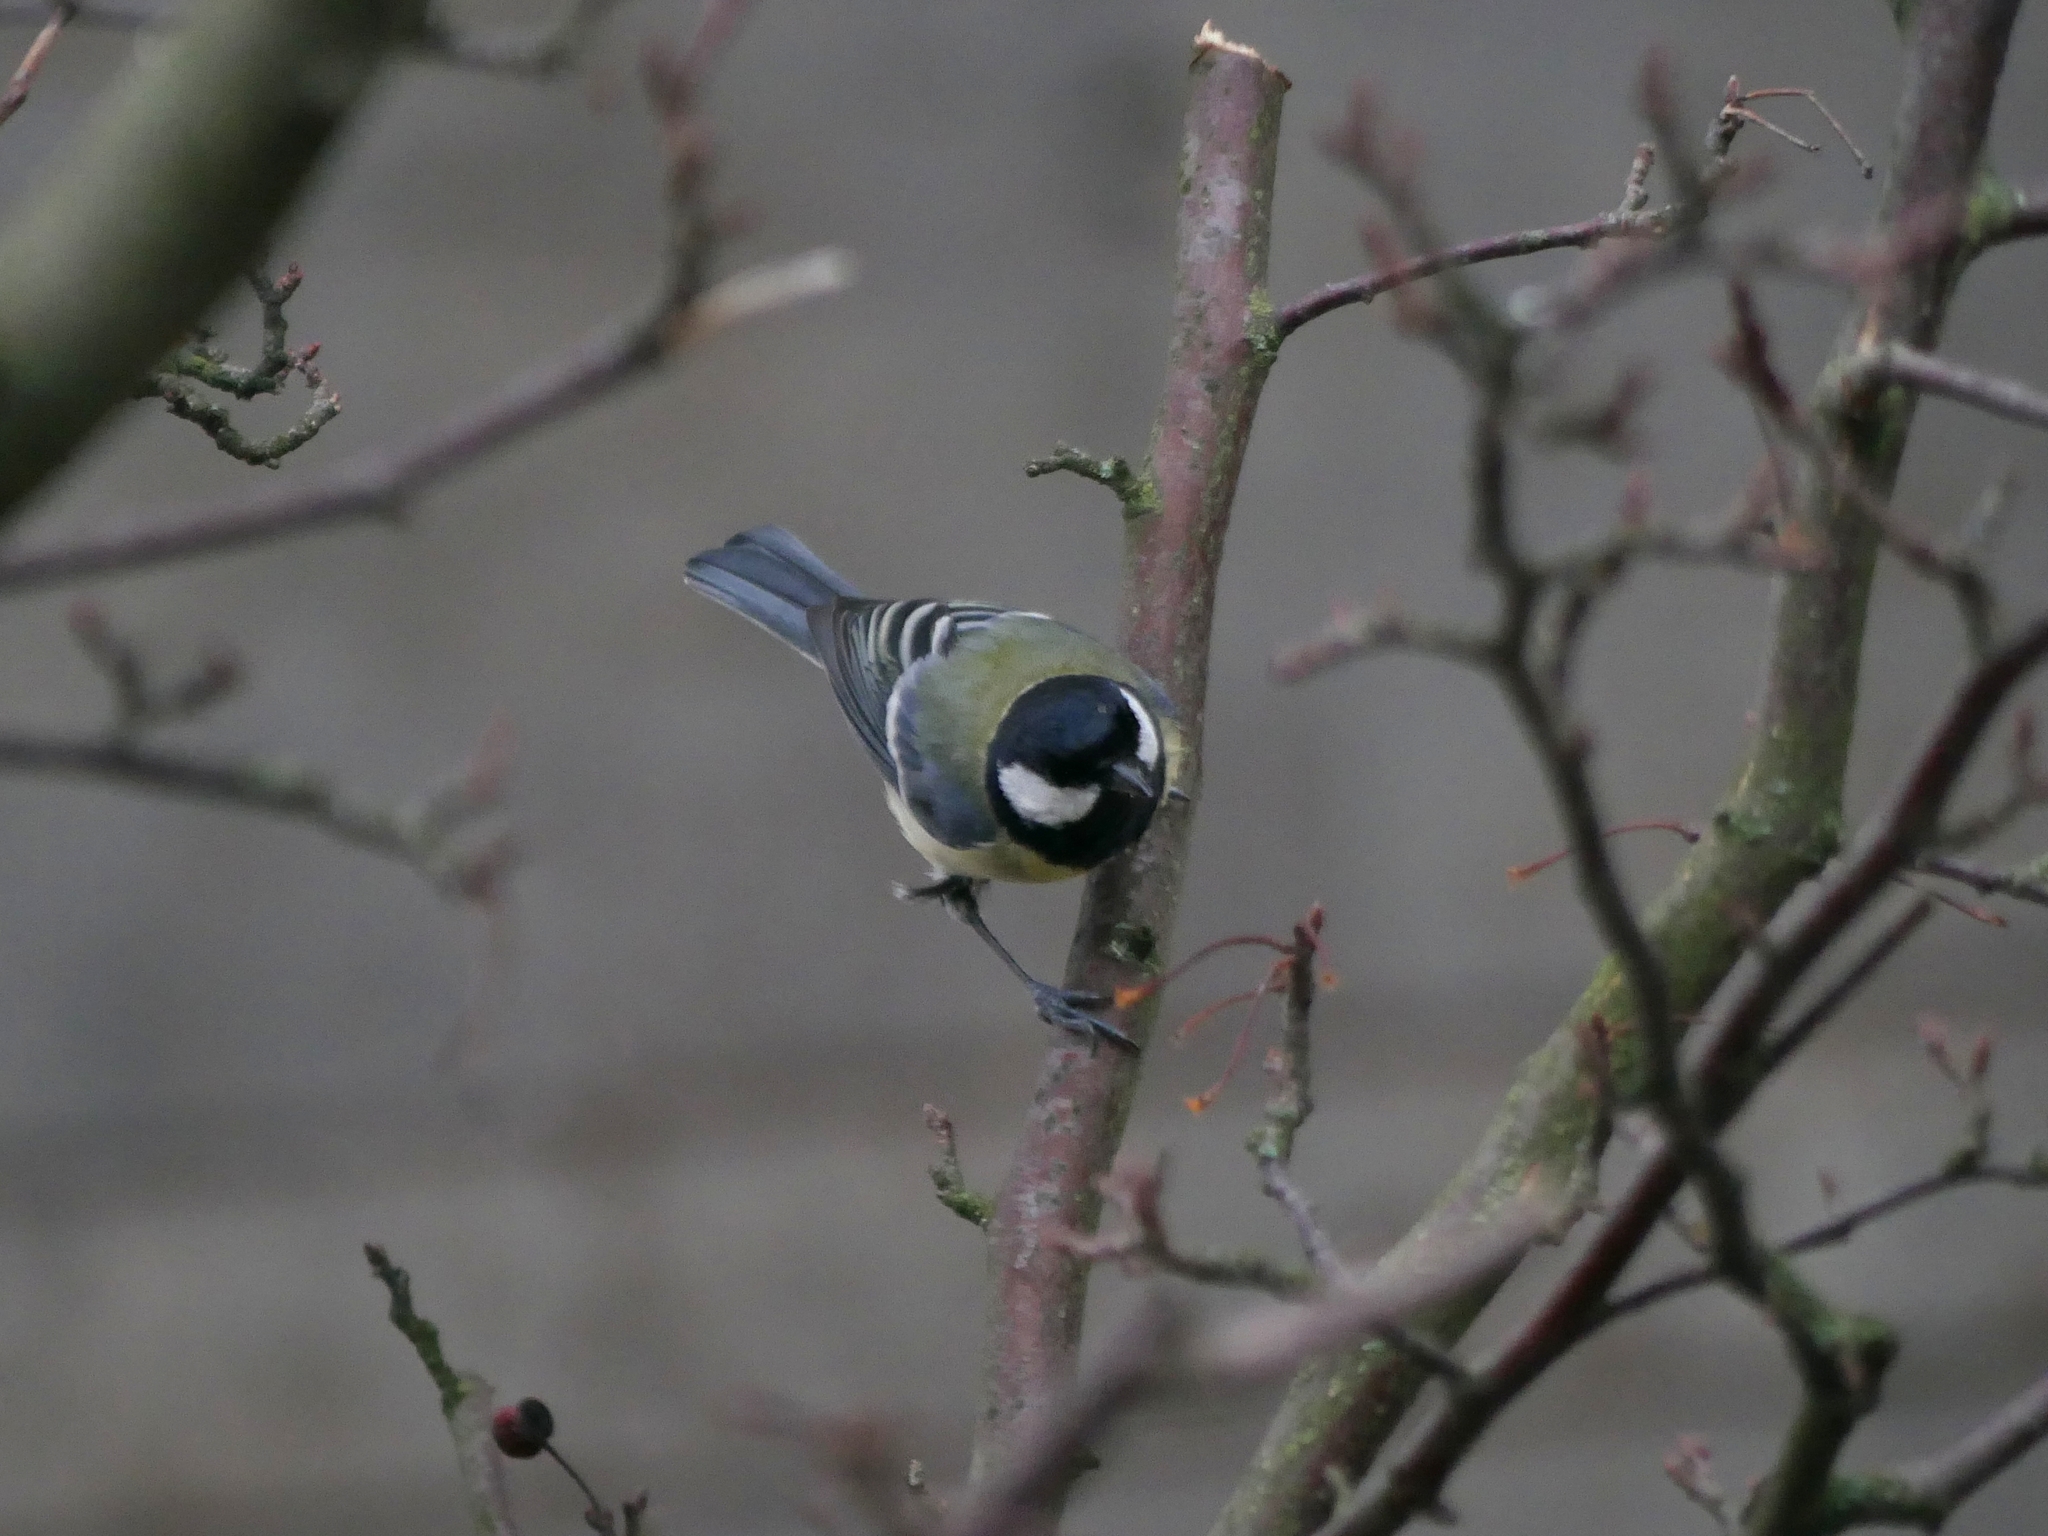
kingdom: Animalia
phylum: Chordata
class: Aves
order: Passeriformes
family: Paridae
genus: Parus
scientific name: Parus major
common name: Great tit
